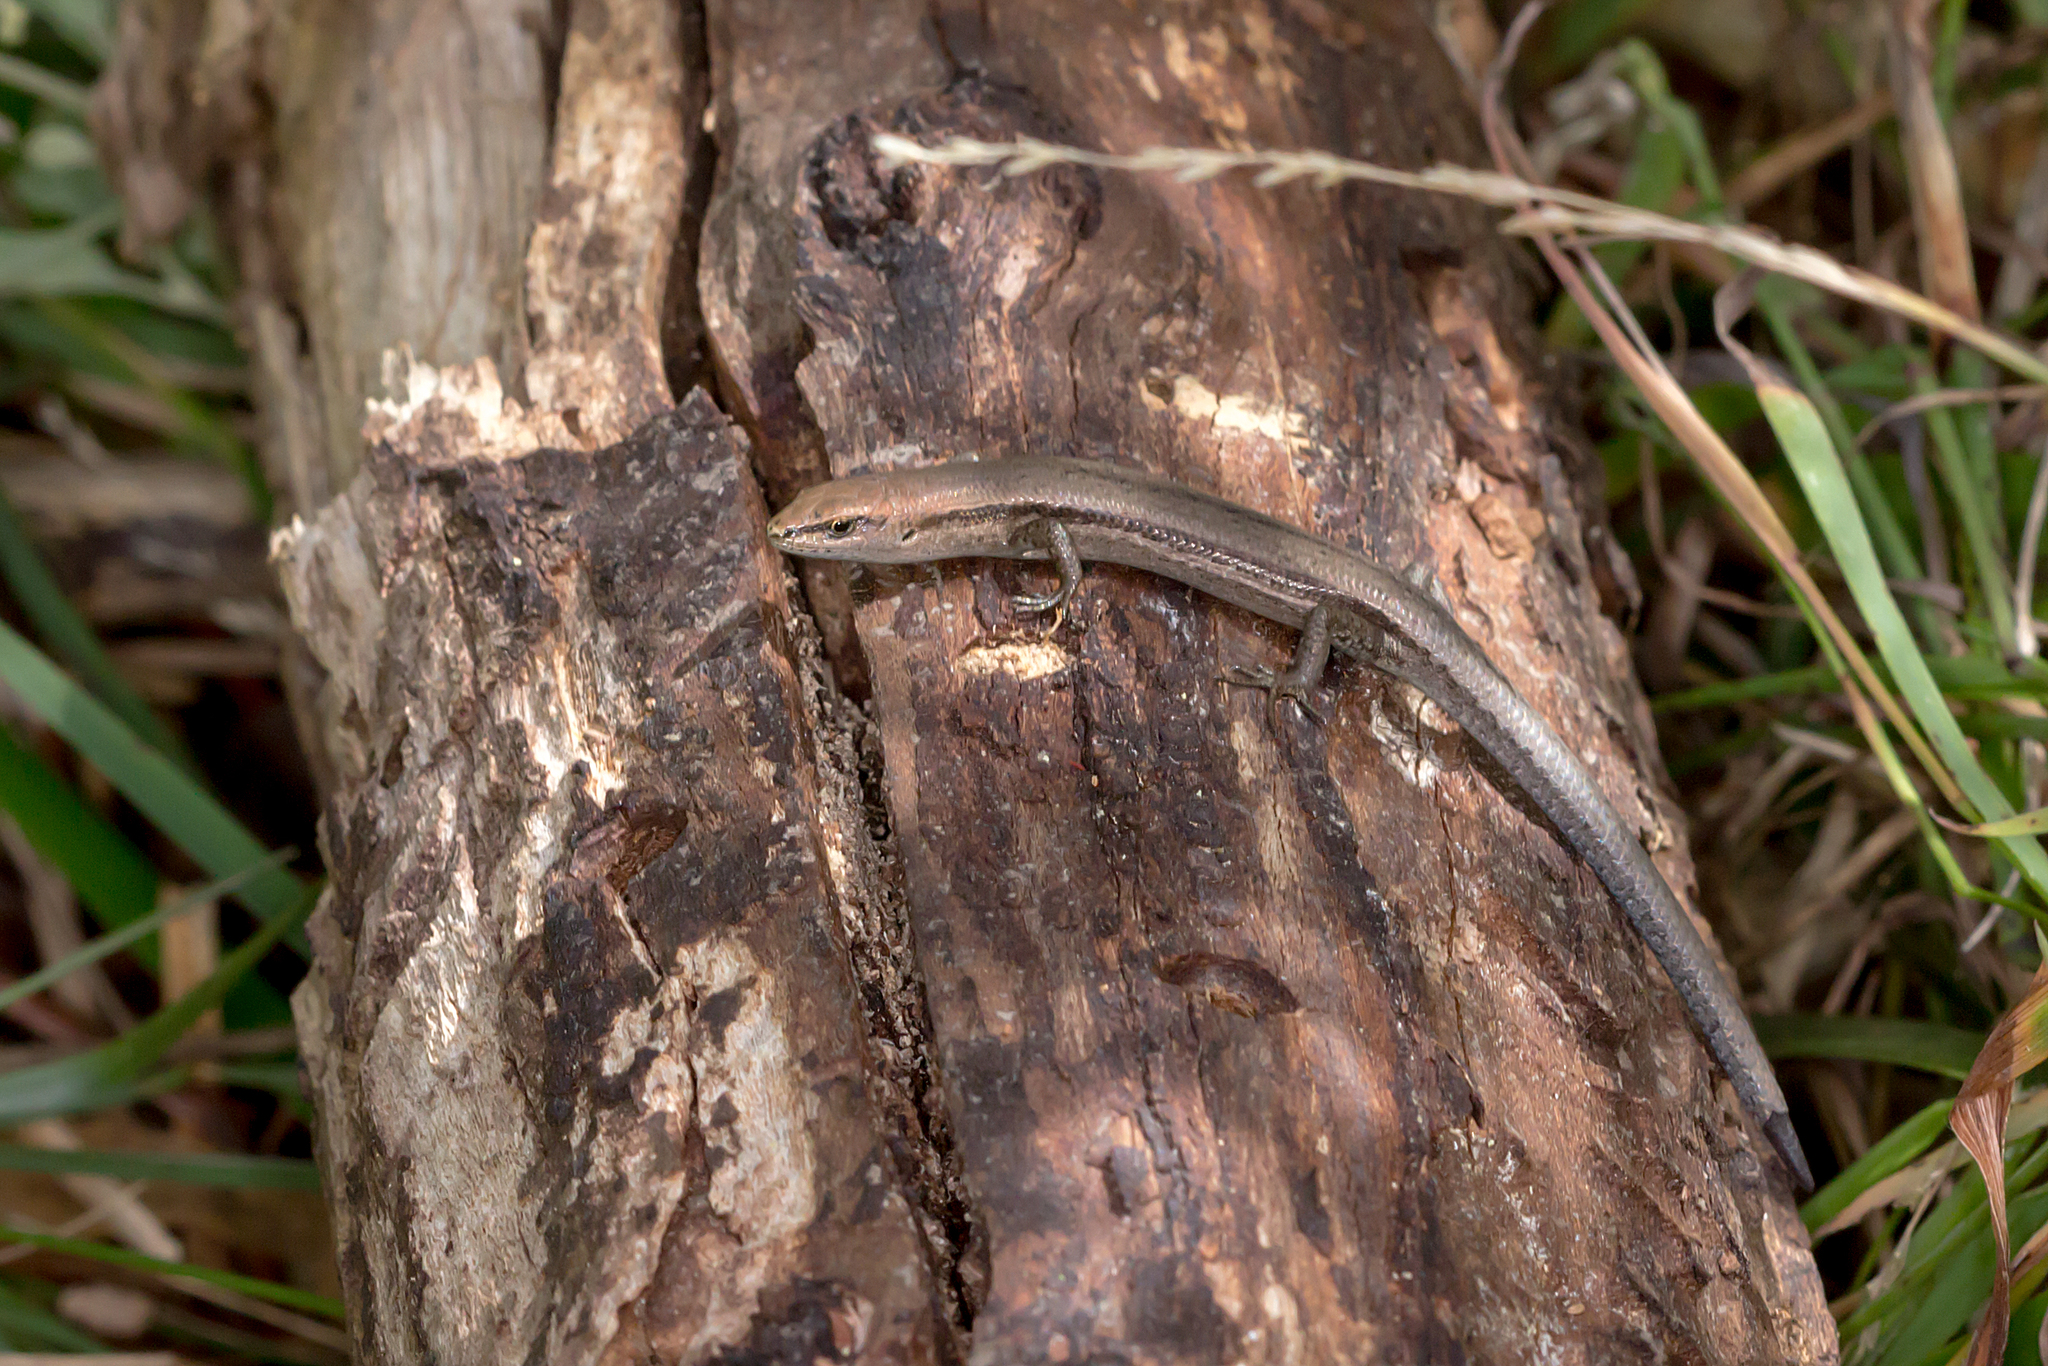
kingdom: Animalia
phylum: Chordata
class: Squamata
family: Scincidae
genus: Lampropholis
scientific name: Lampropholis guichenoti
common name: Garden skink
